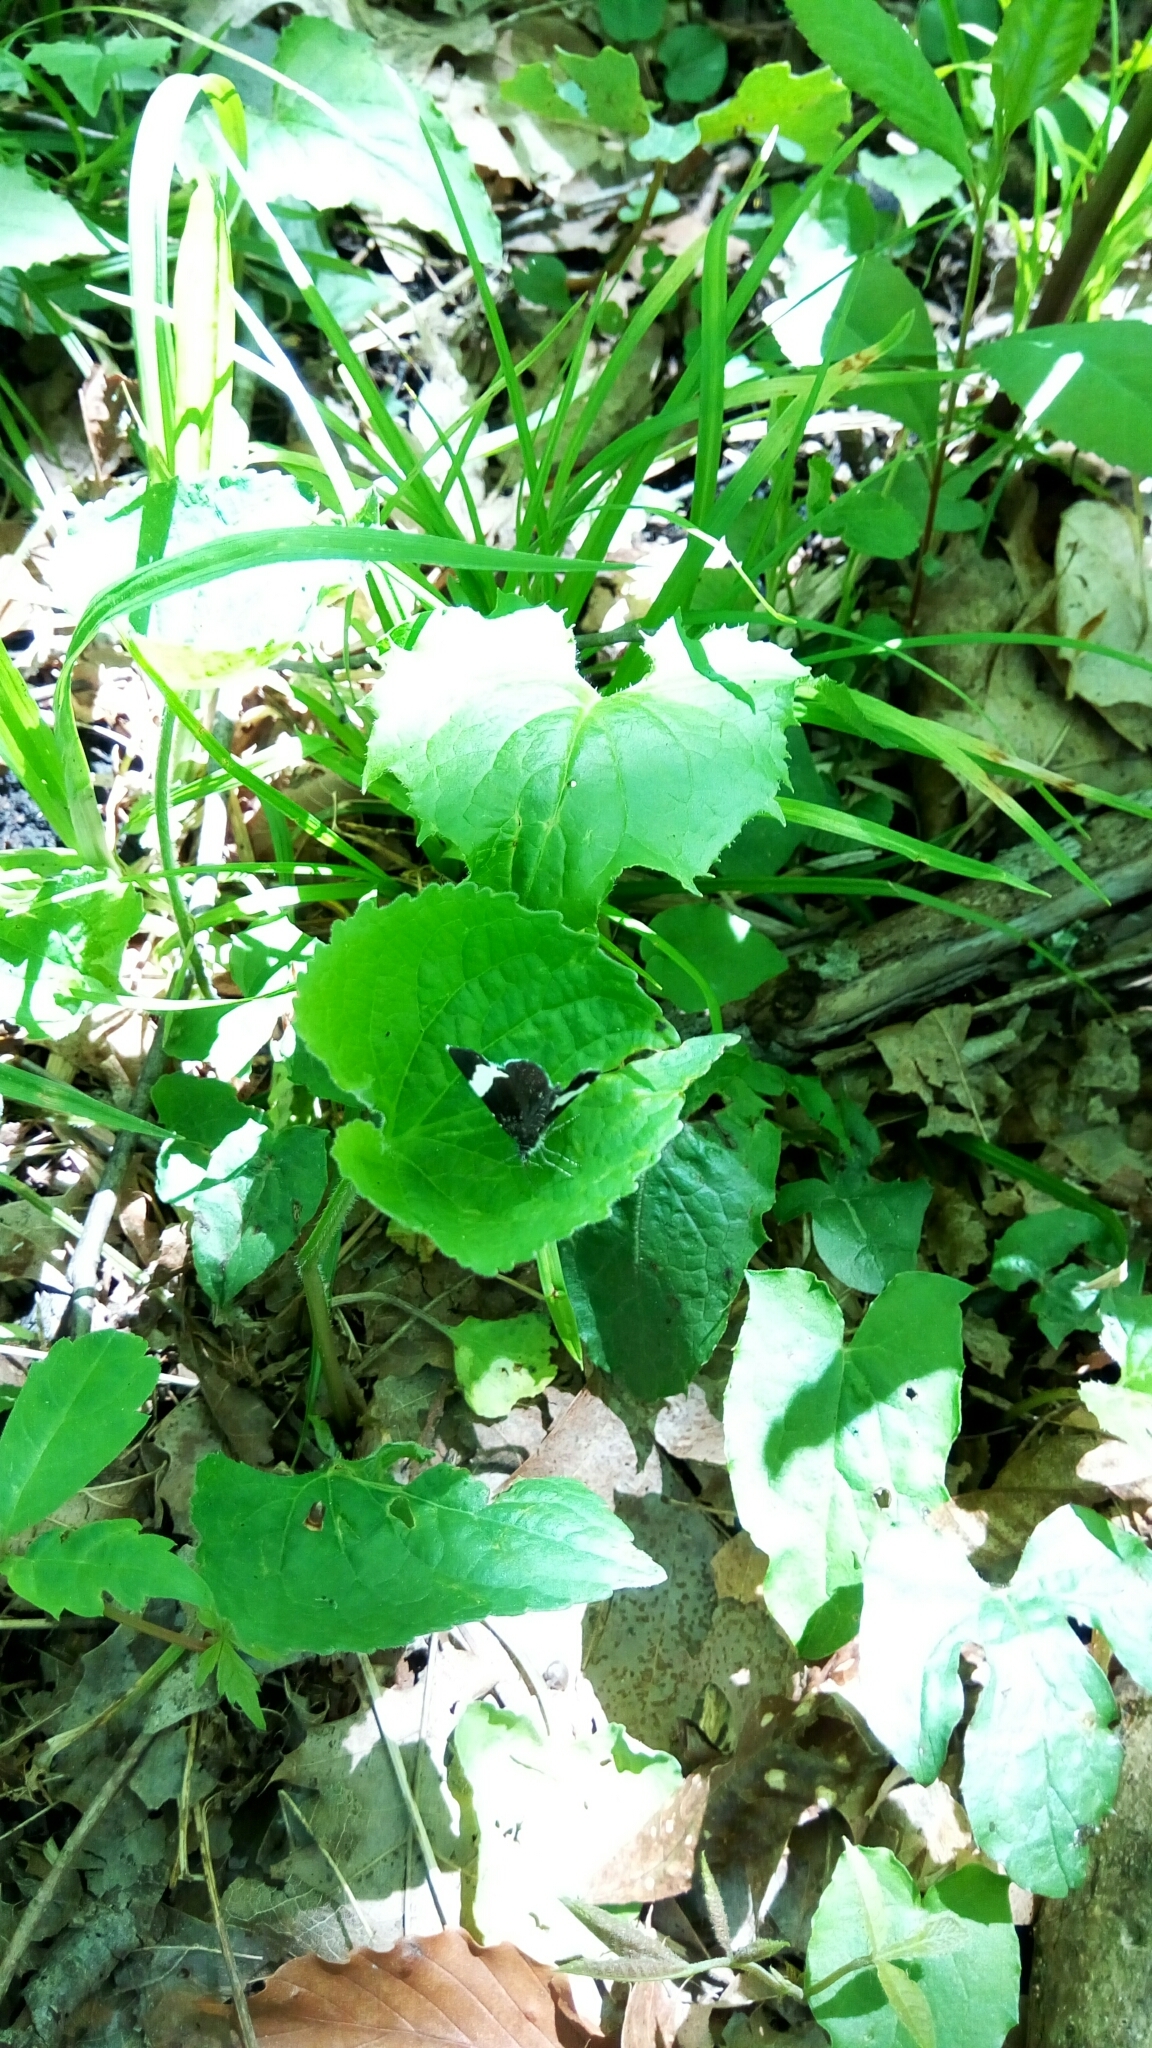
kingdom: Animalia
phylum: Arthropoda
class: Insecta
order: Lepidoptera
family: Geometridae
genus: Trichodezia
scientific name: Trichodezia albovittata
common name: White striped black
